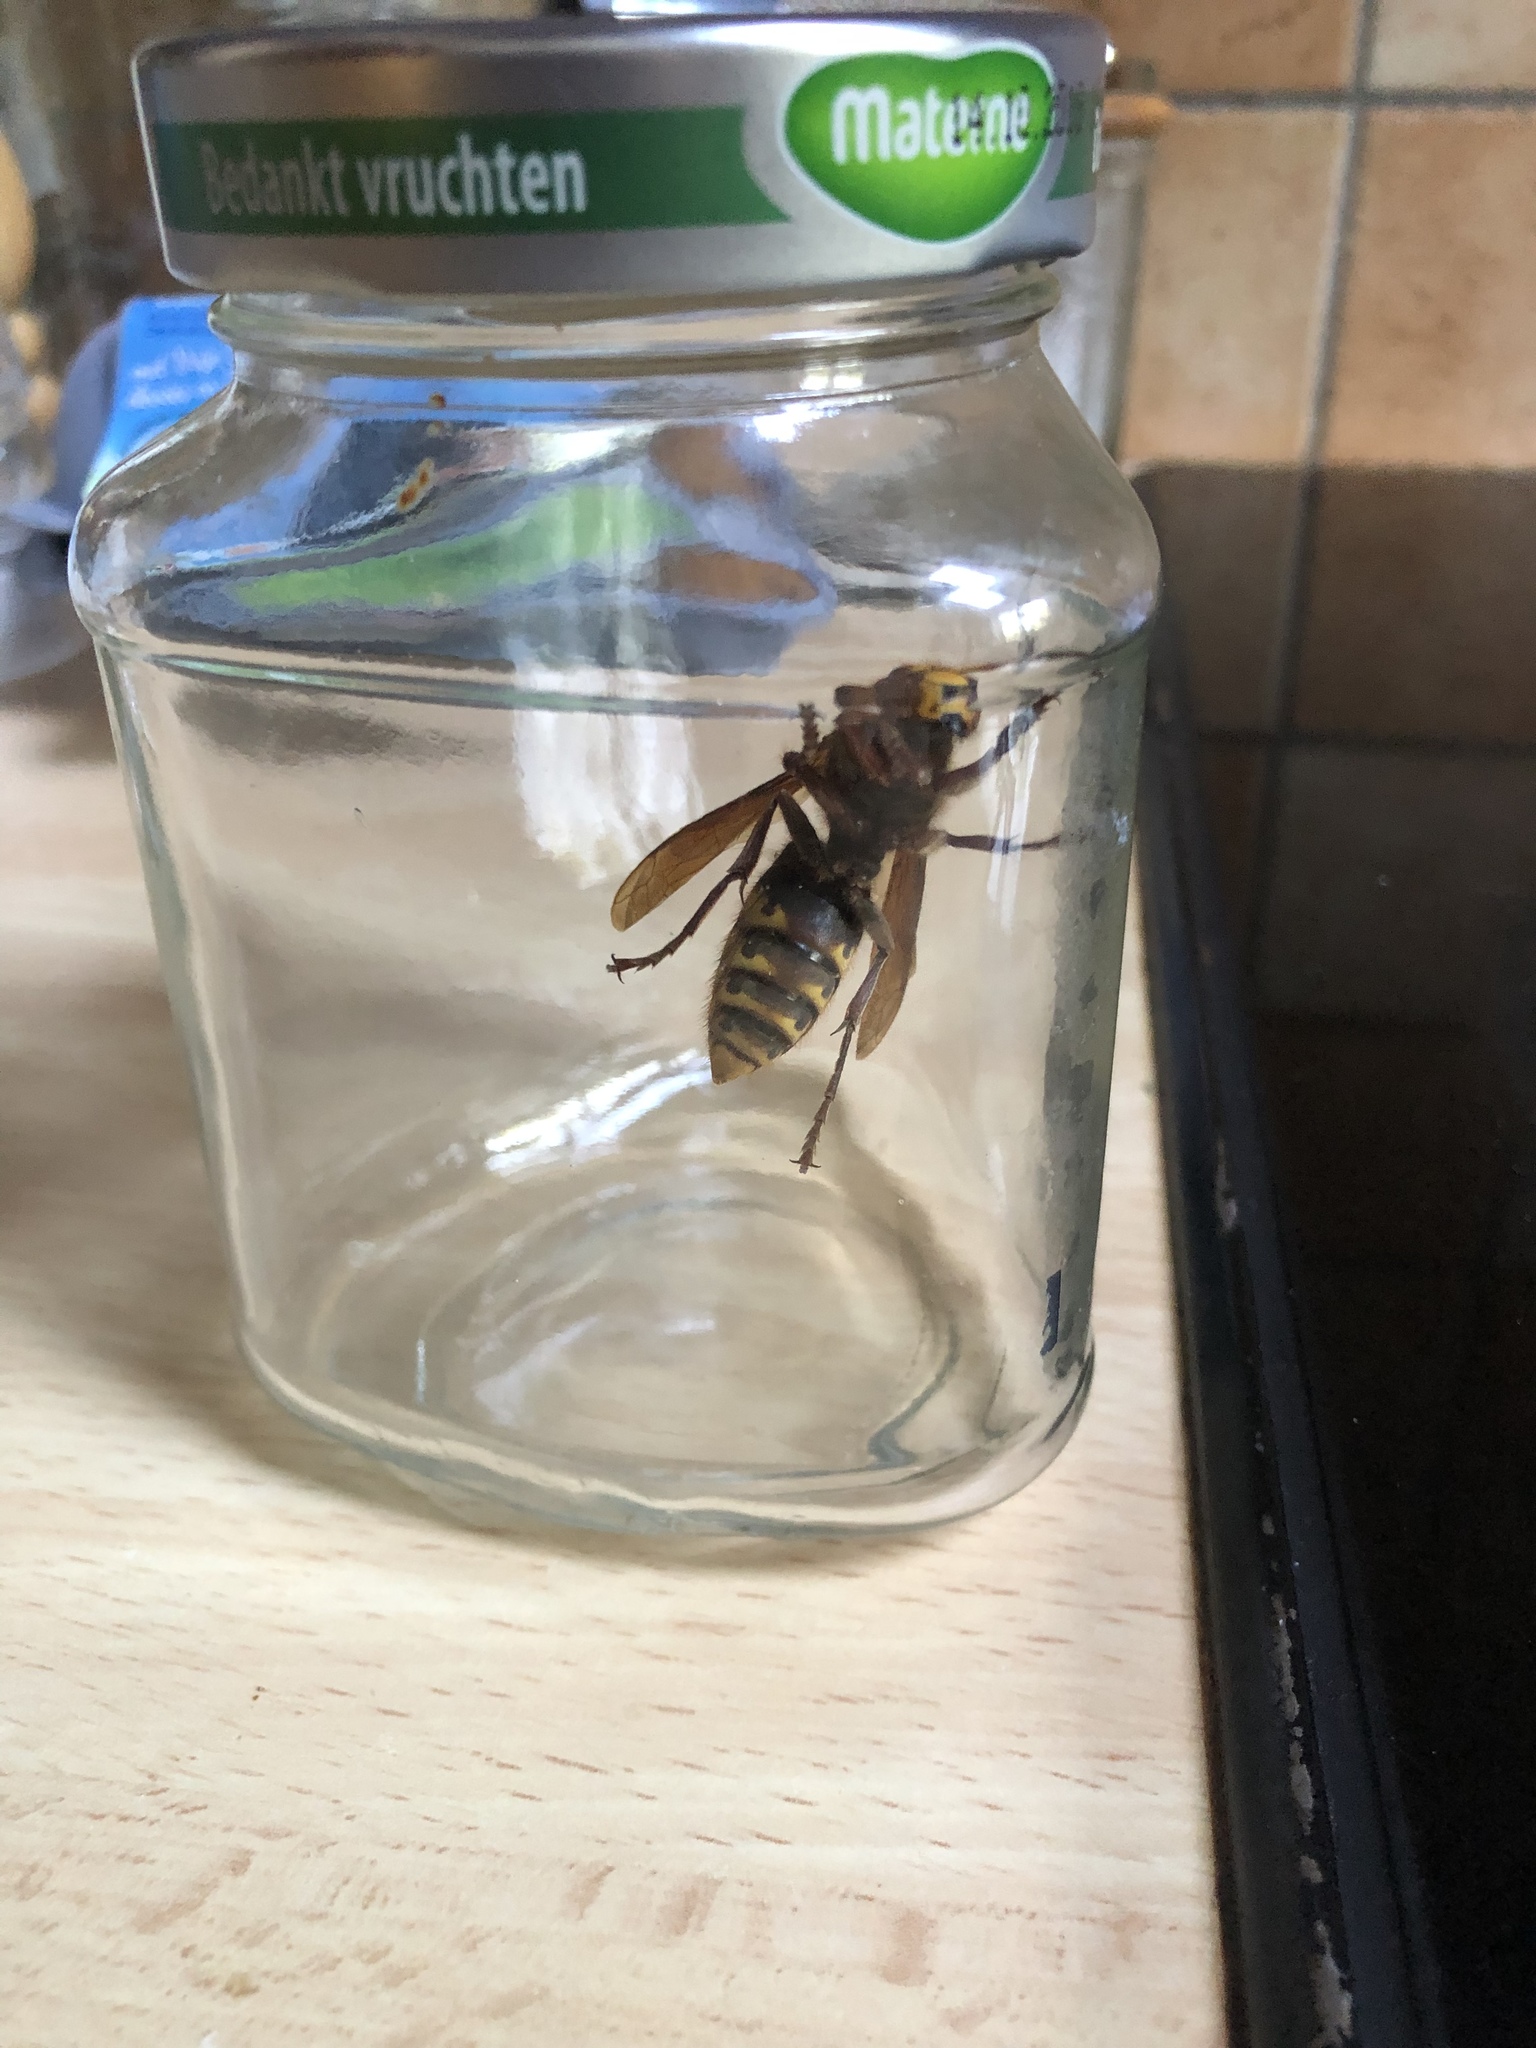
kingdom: Animalia
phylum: Arthropoda
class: Insecta
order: Hymenoptera
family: Vespidae
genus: Vespa
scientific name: Vespa crabro
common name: Hornet
